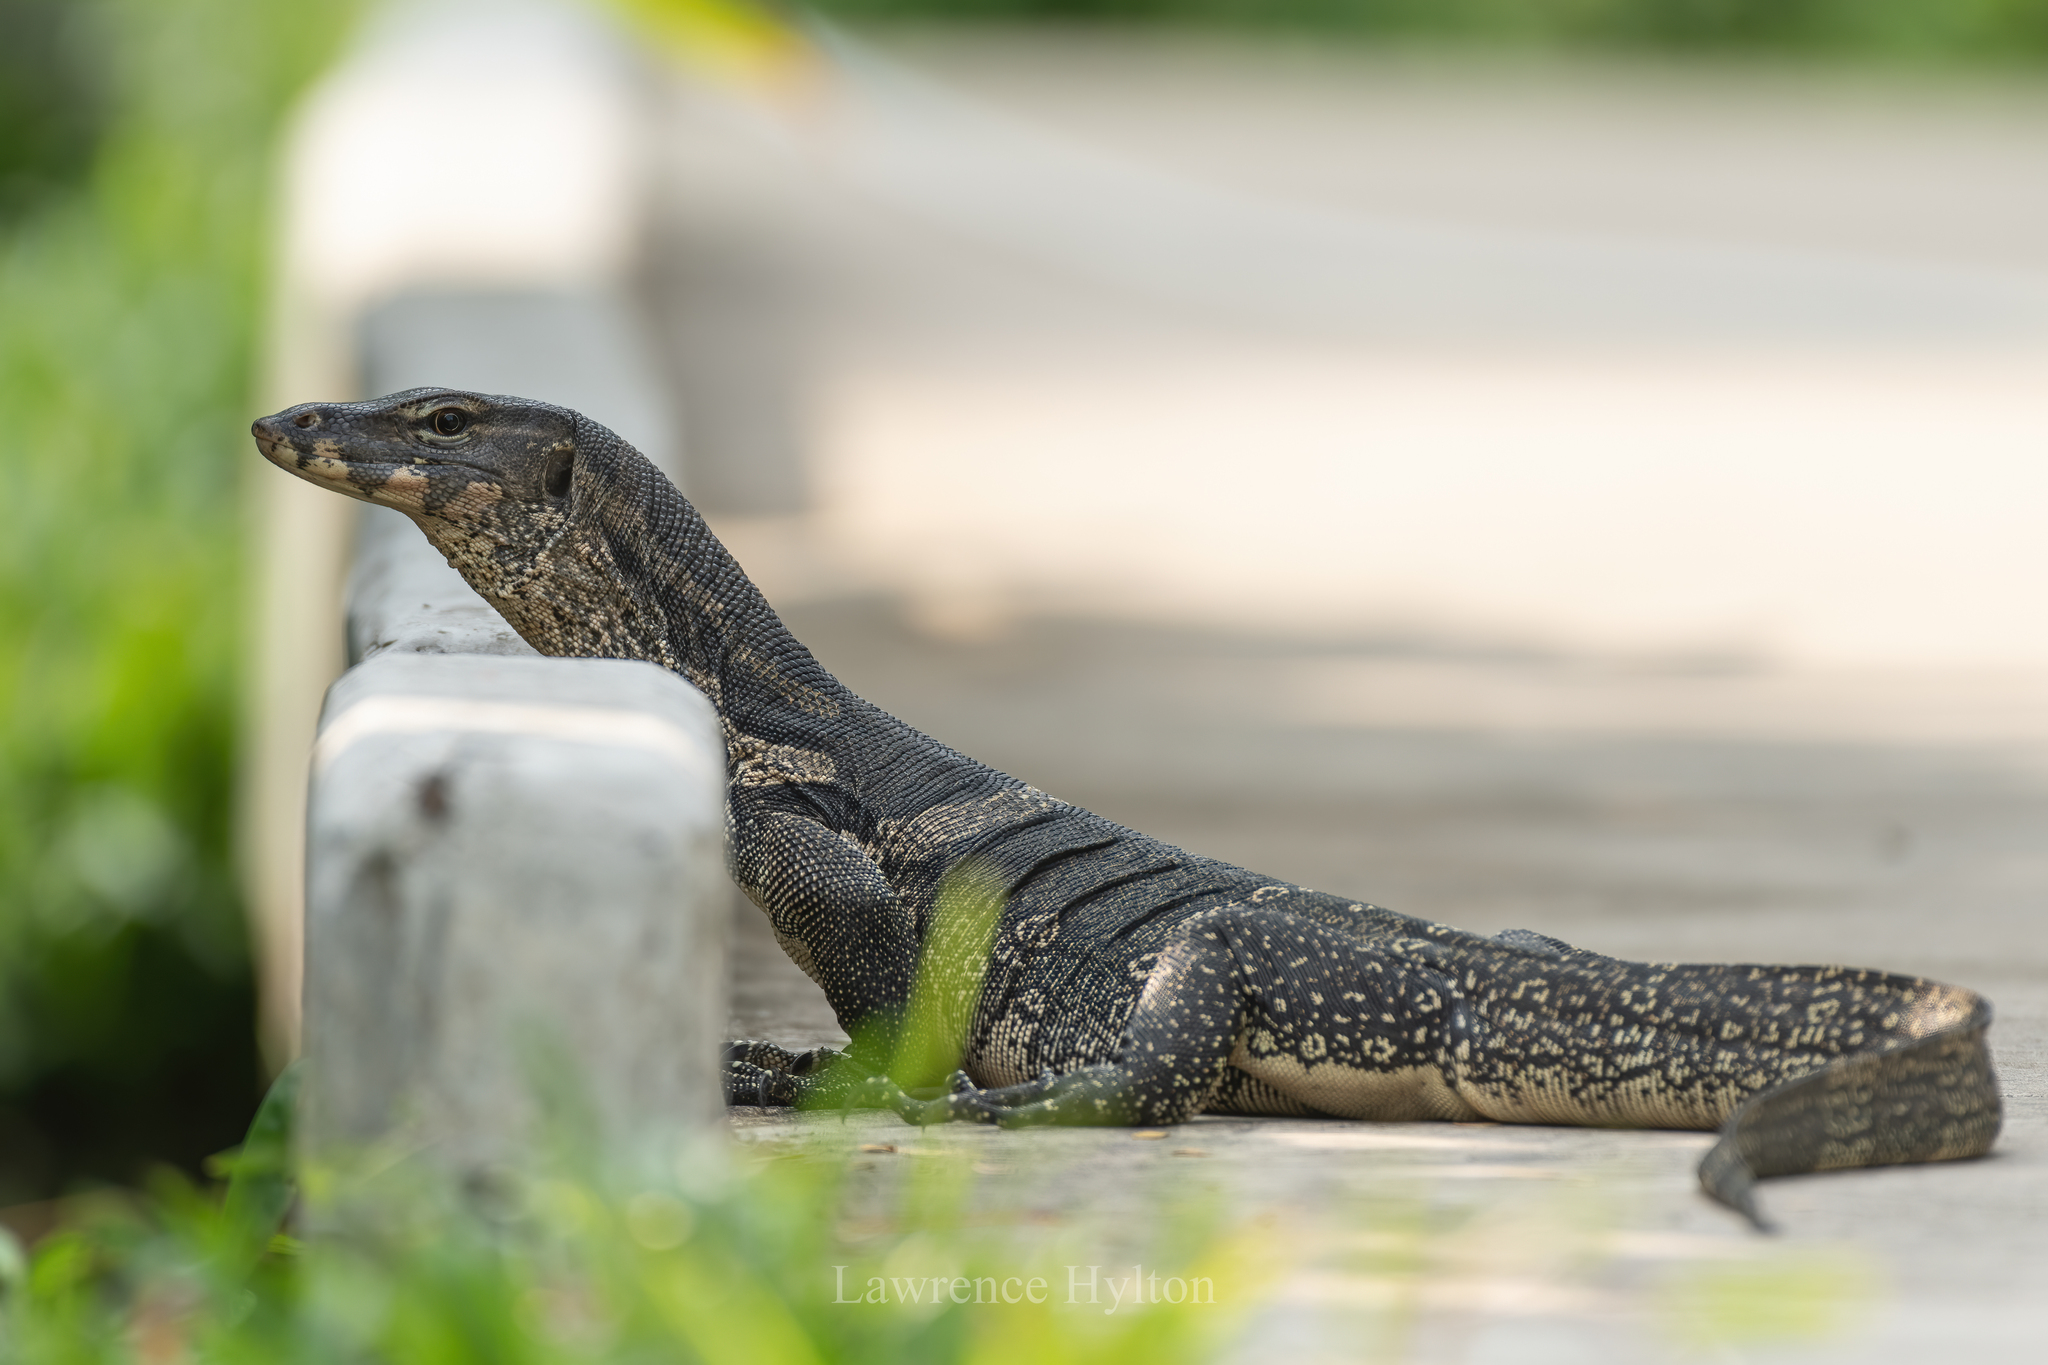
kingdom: Animalia
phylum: Chordata
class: Squamata
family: Varanidae
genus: Varanus
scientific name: Varanus salvator
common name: Common water monitor
